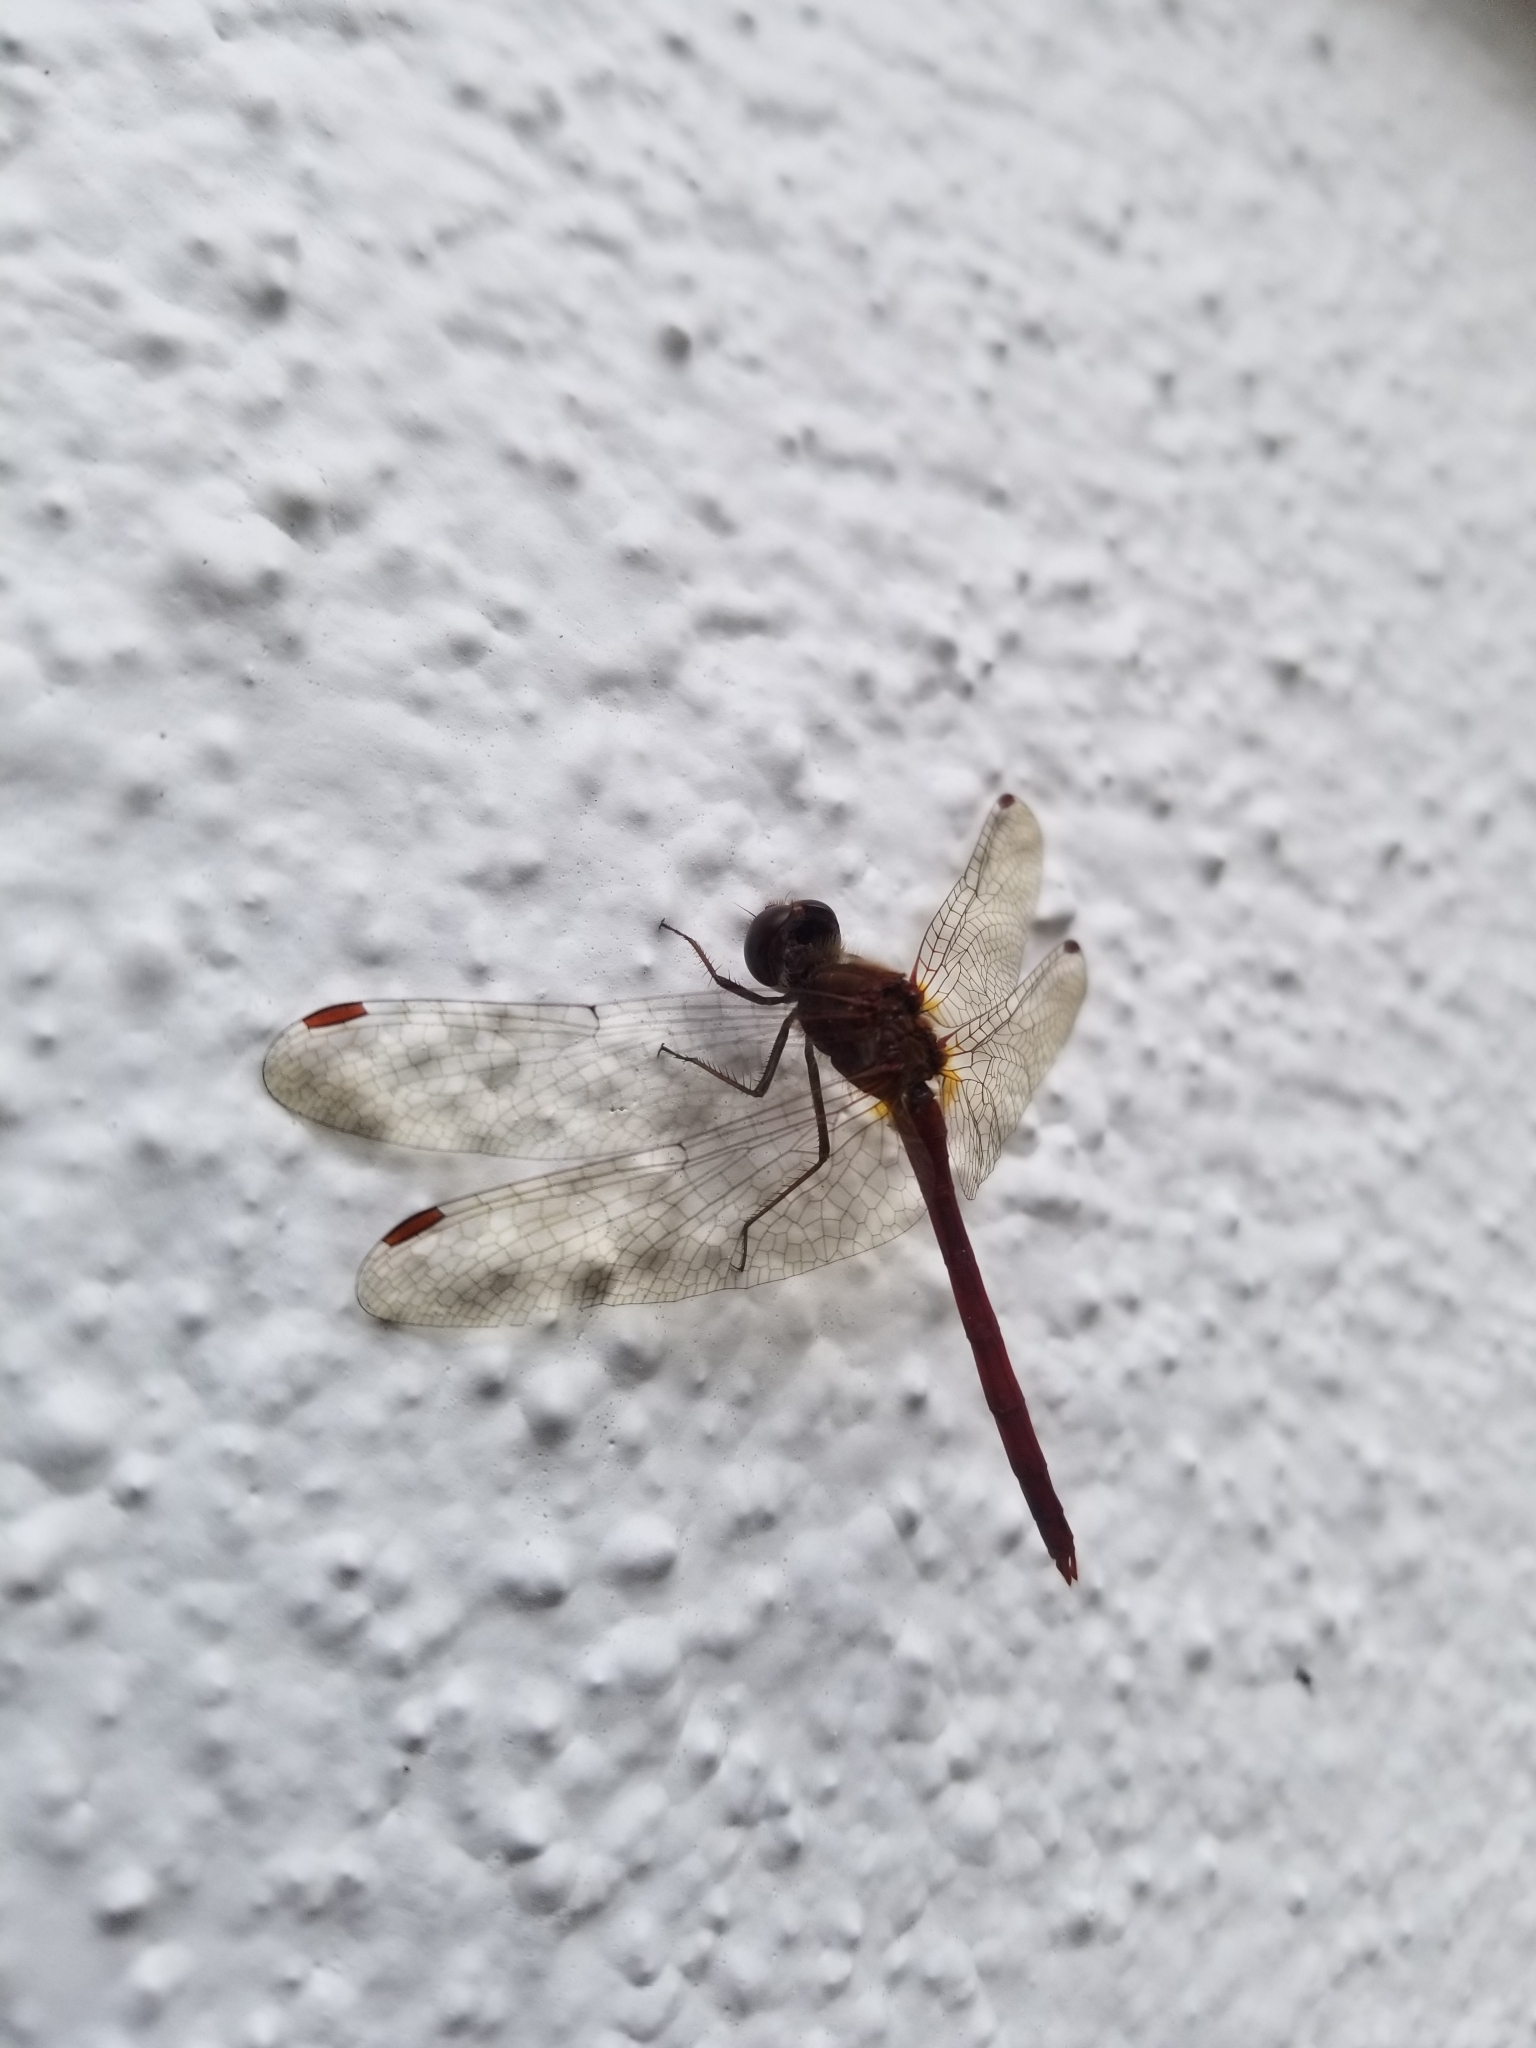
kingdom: Animalia
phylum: Arthropoda
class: Insecta
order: Odonata
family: Libellulidae
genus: Sympetrum
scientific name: Sympetrum vicinum
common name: Autumn meadowhawk
